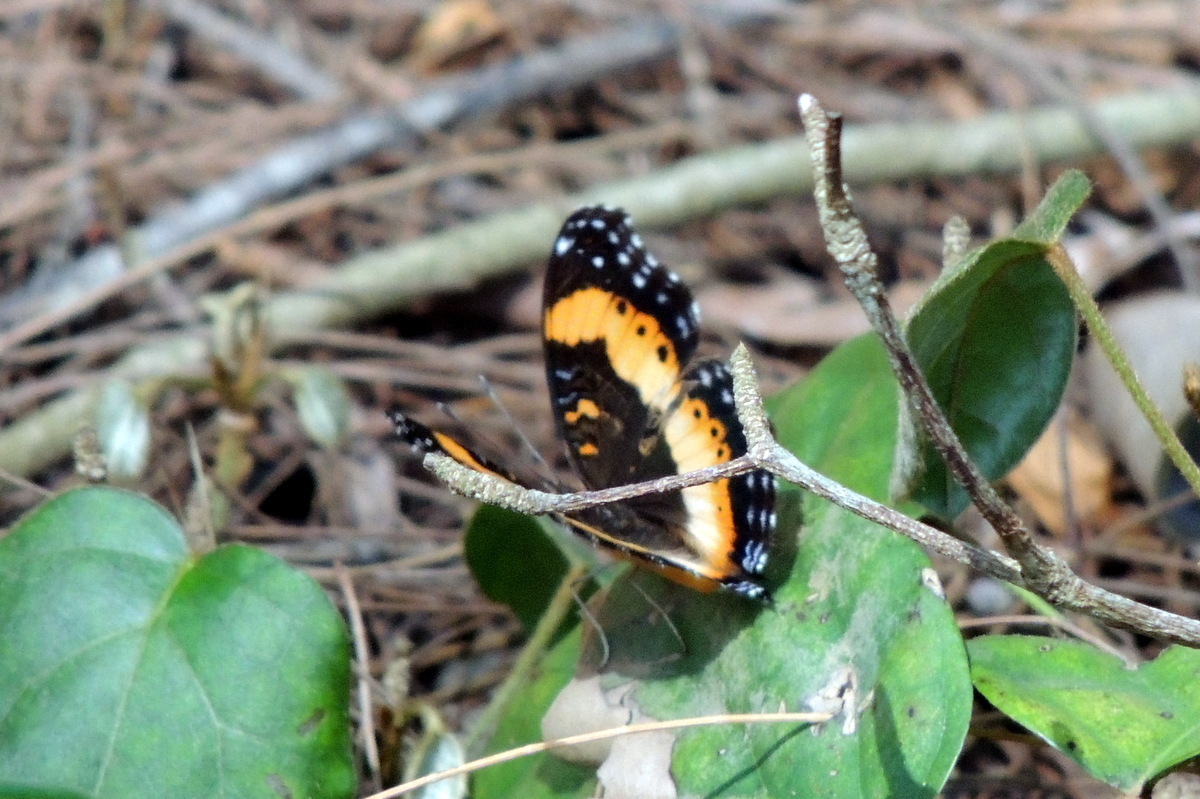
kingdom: Animalia
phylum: Arthropoda
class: Insecta
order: Lepidoptera
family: Nymphalidae
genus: Precis
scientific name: Precis pelarga
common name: Fashion commodore
